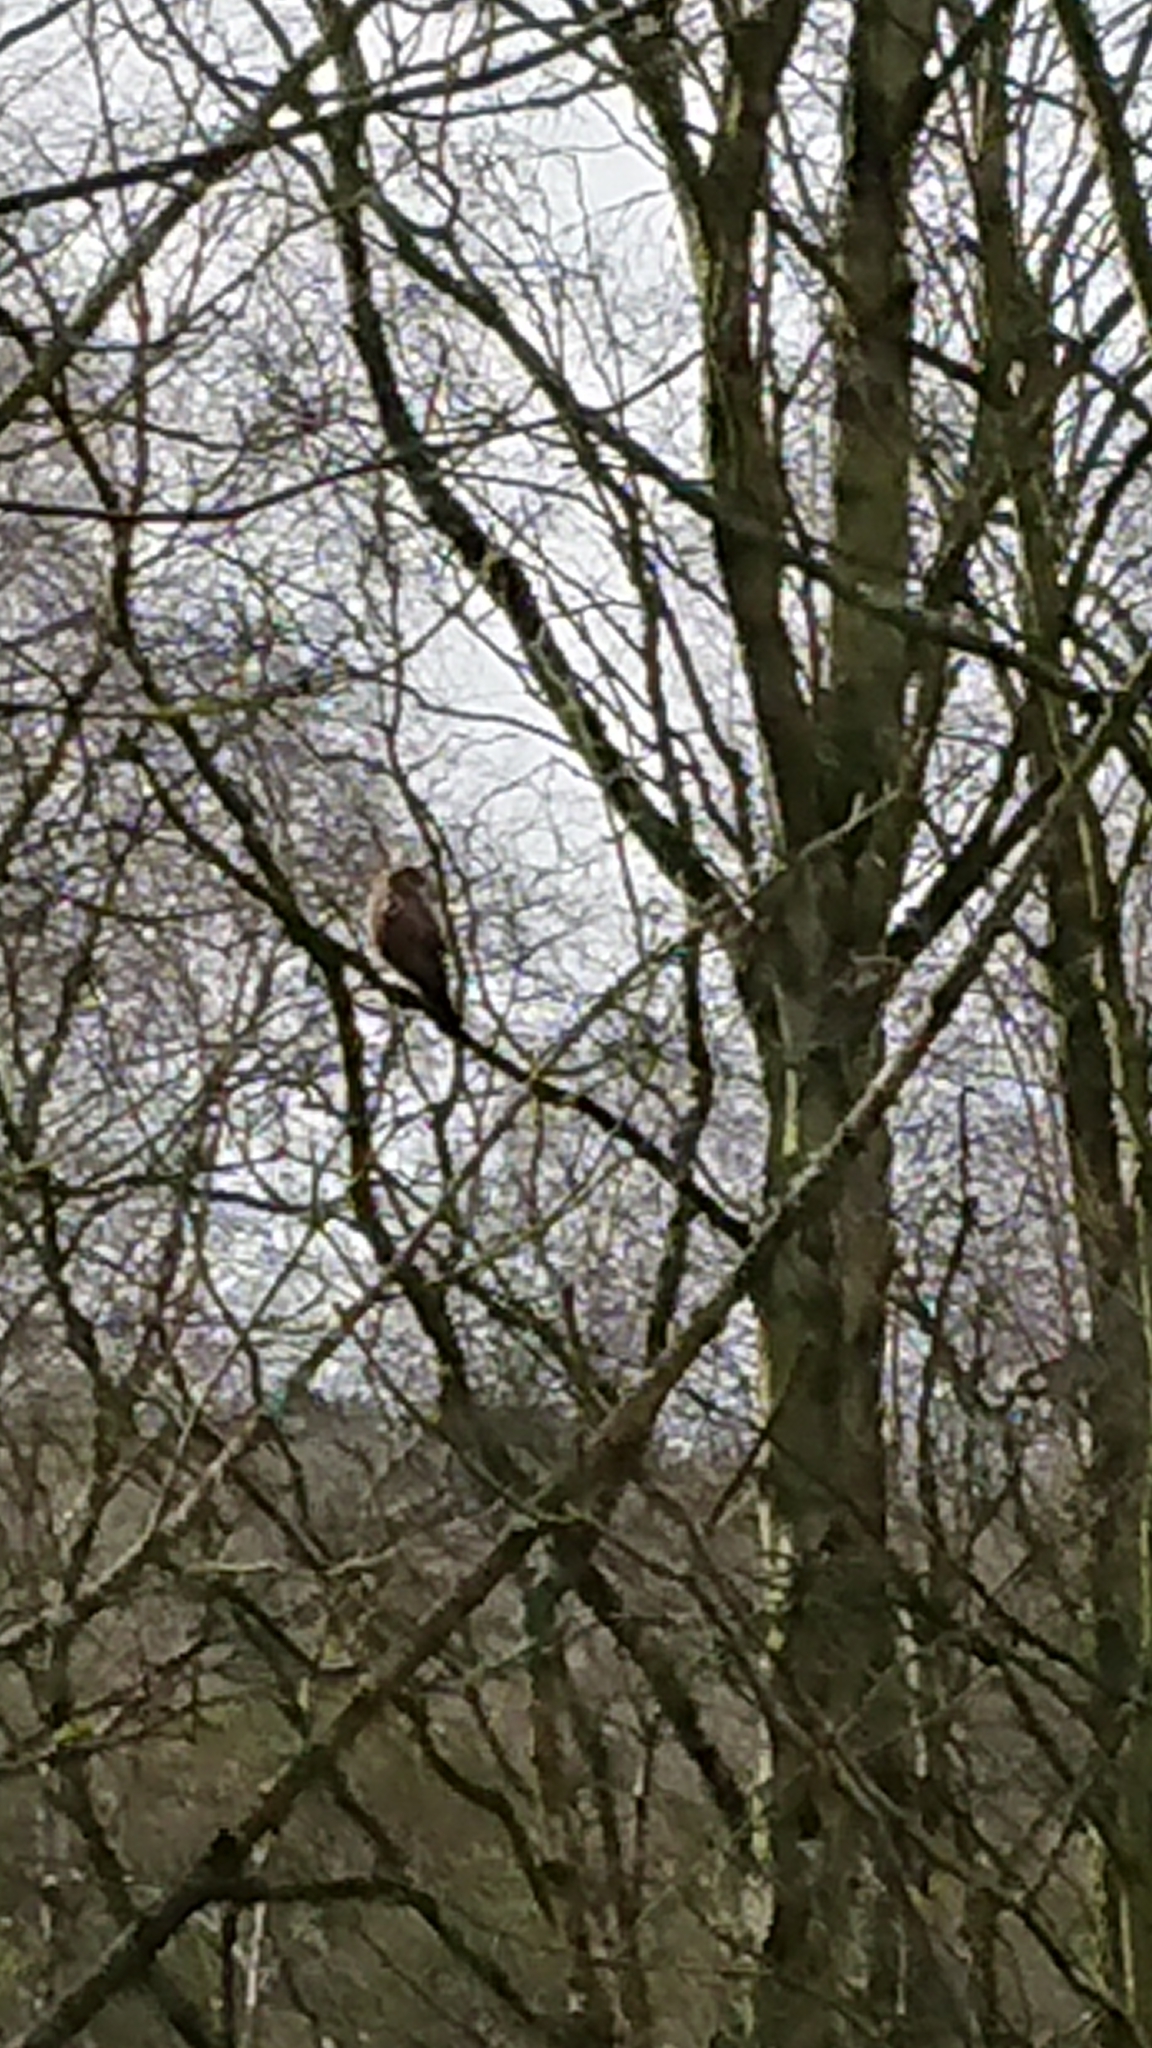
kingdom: Animalia
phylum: Chordata
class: Aves
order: Accipitriformes
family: Accipitridae
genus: Accipiter
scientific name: Accipiter nisus
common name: Eurasian sparrowhawk
